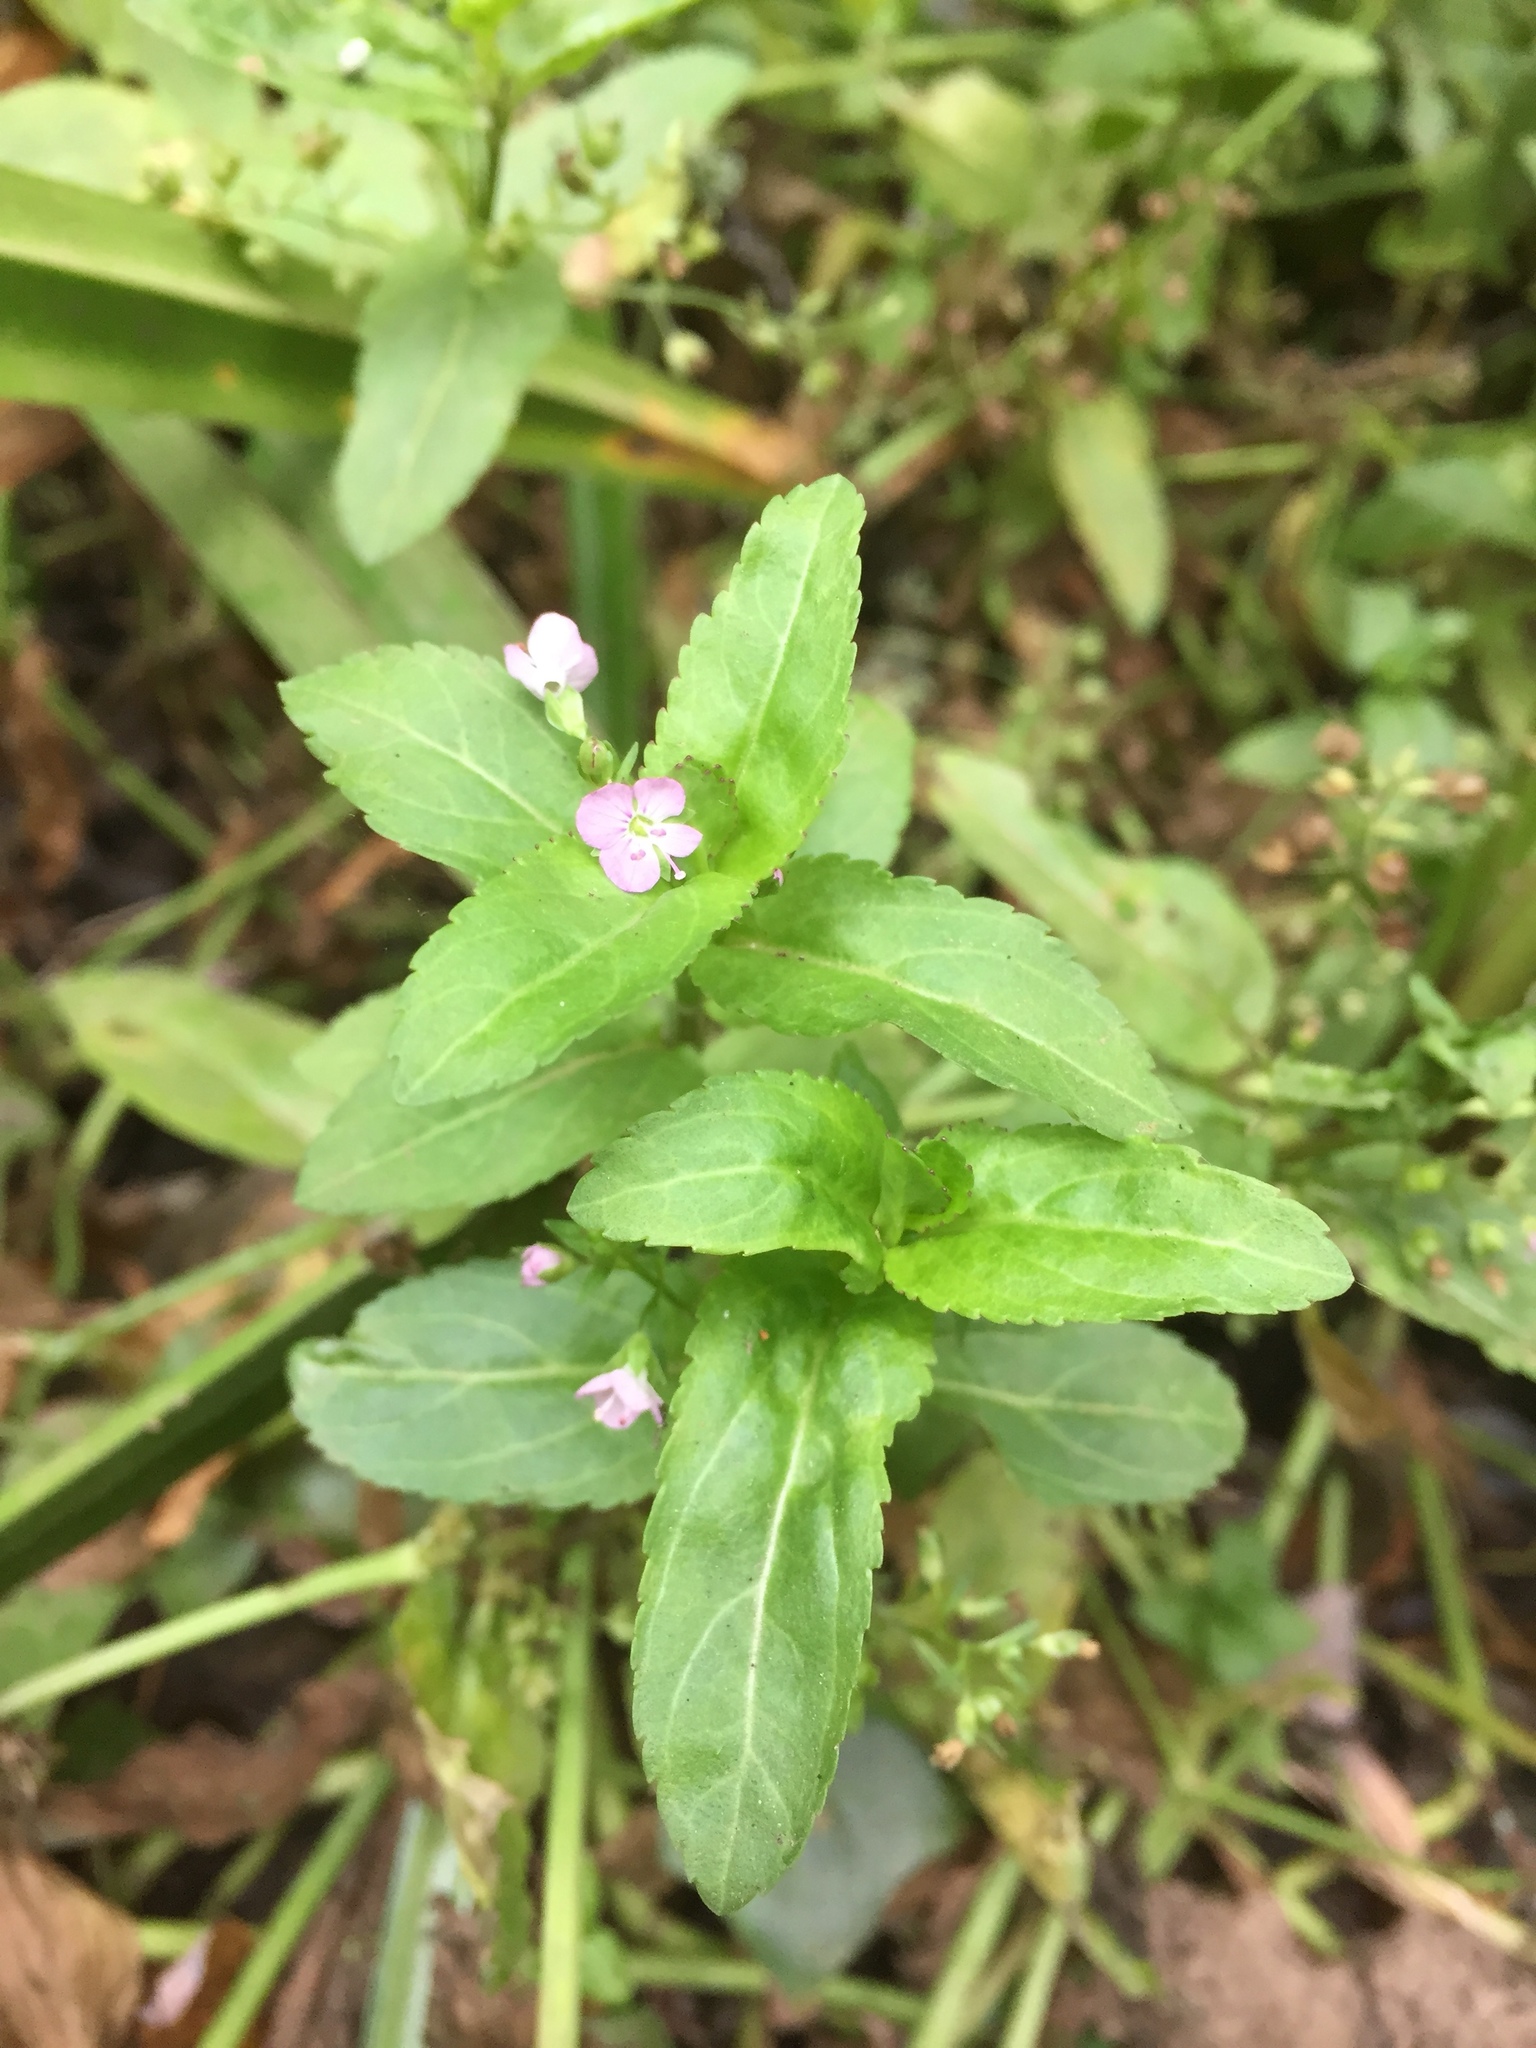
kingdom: Plantae
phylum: Tracheophyta
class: Magnoliopsida
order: Lamiales
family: Plantaginaceae
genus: Veronica
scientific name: Veronica americana
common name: American brooklime
